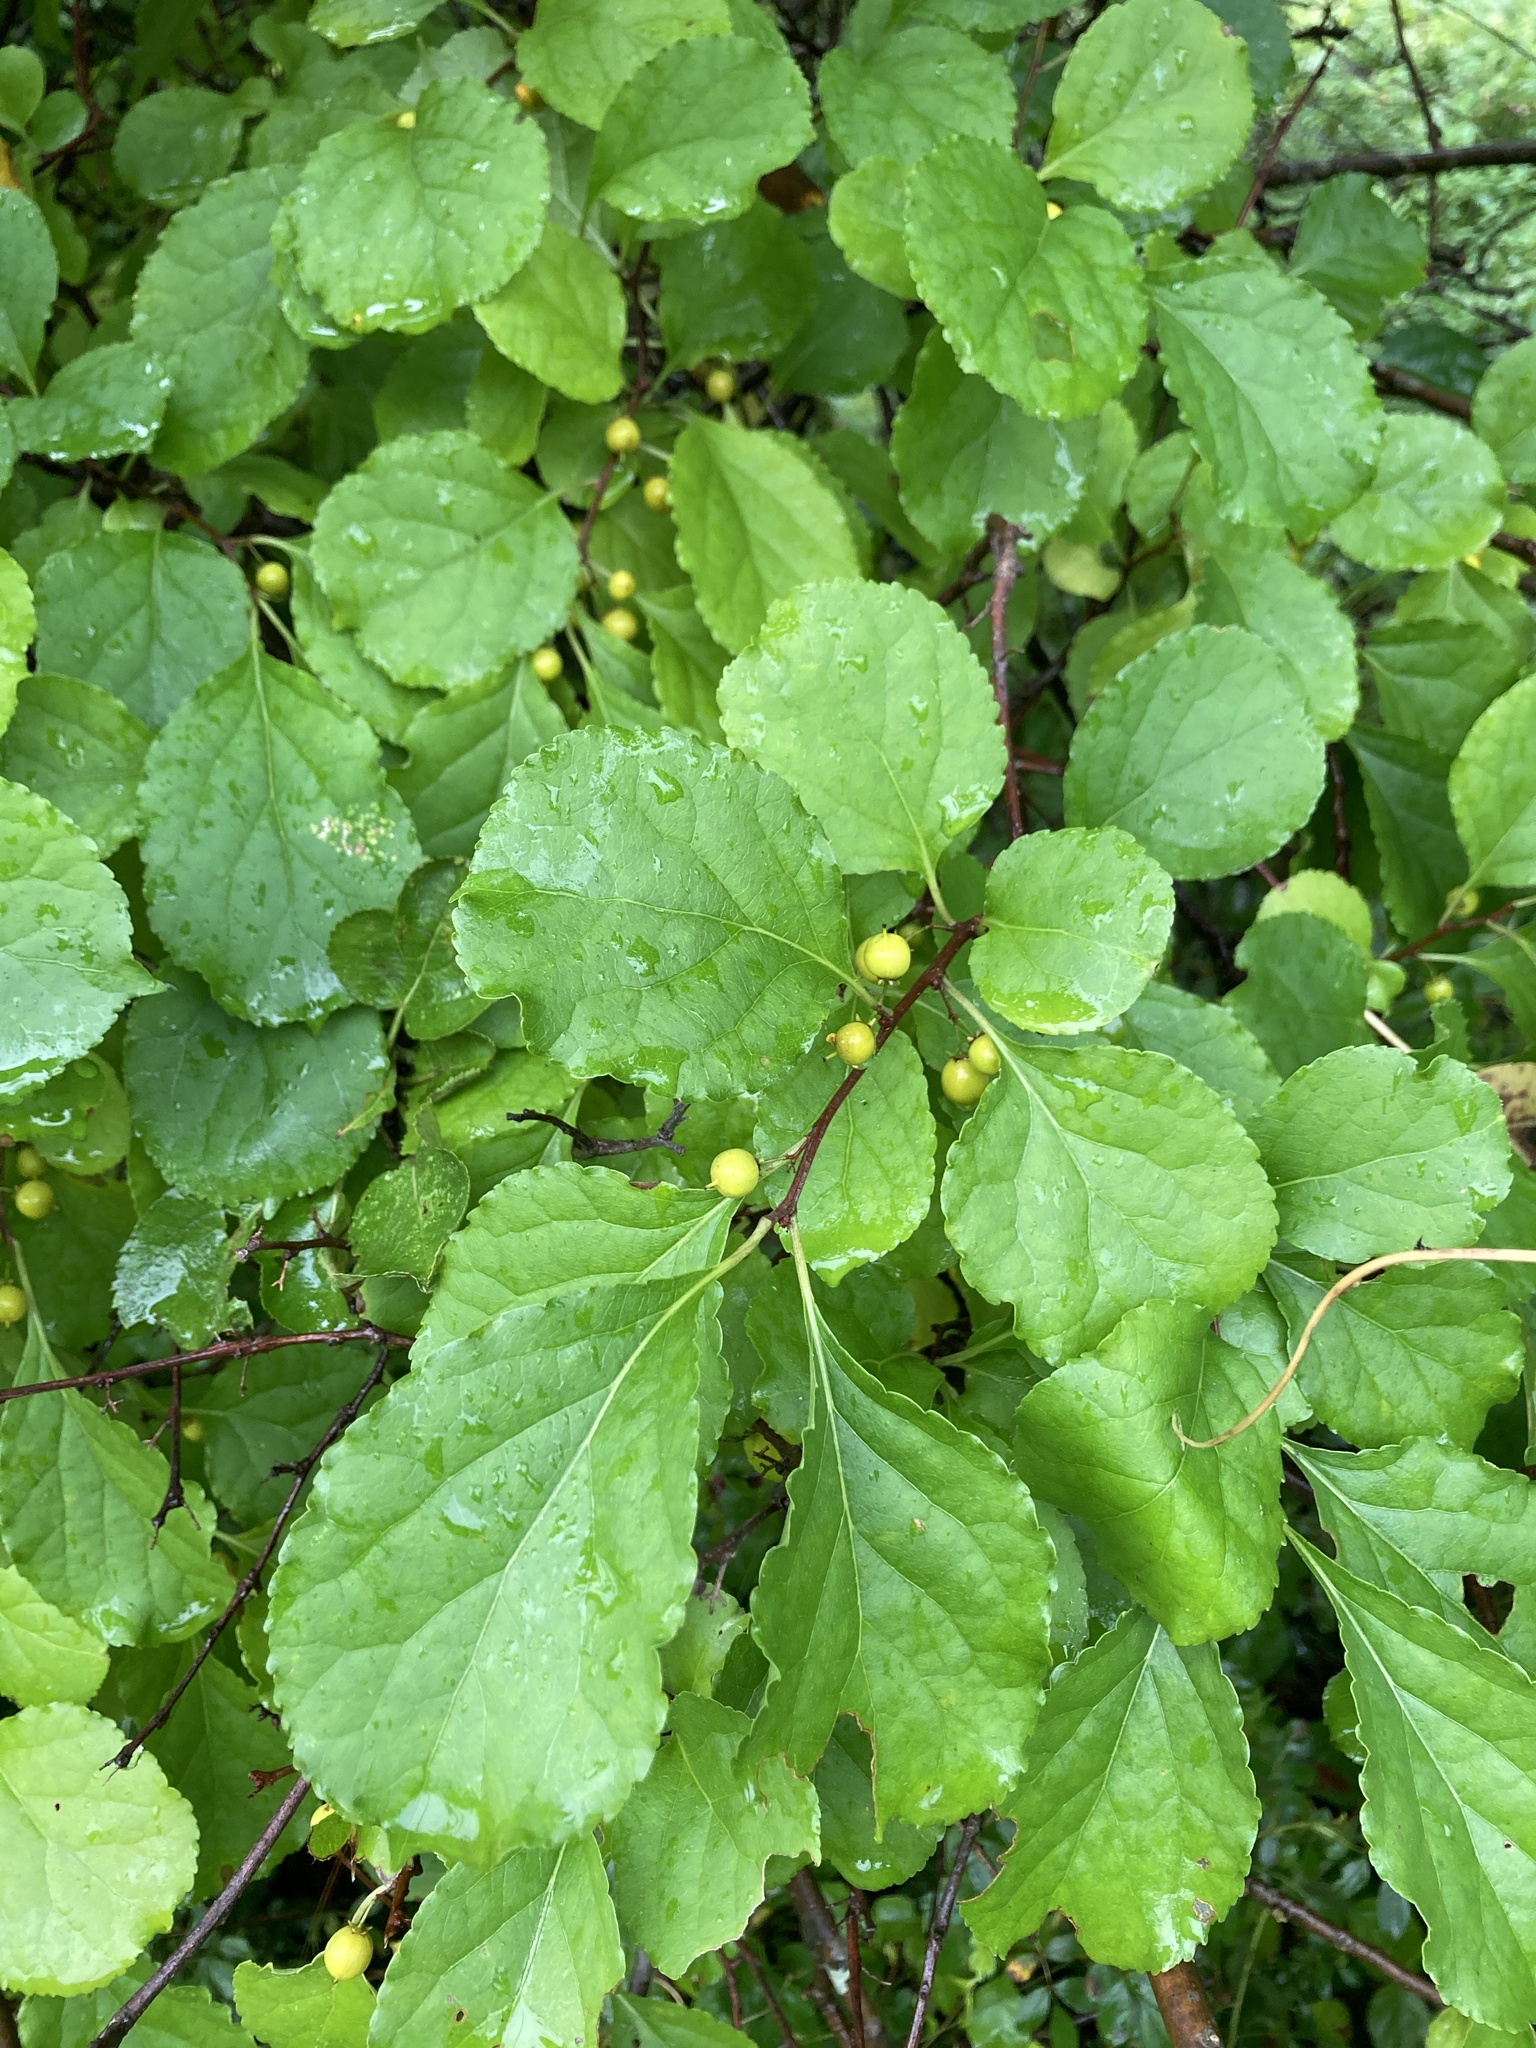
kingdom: Plantae
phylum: Tracheophyta
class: Magnoliopsida
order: Celastrales
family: Celastraceae
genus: Celastrus
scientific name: Celastrus orbiculatus
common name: Oriental bittersweet
